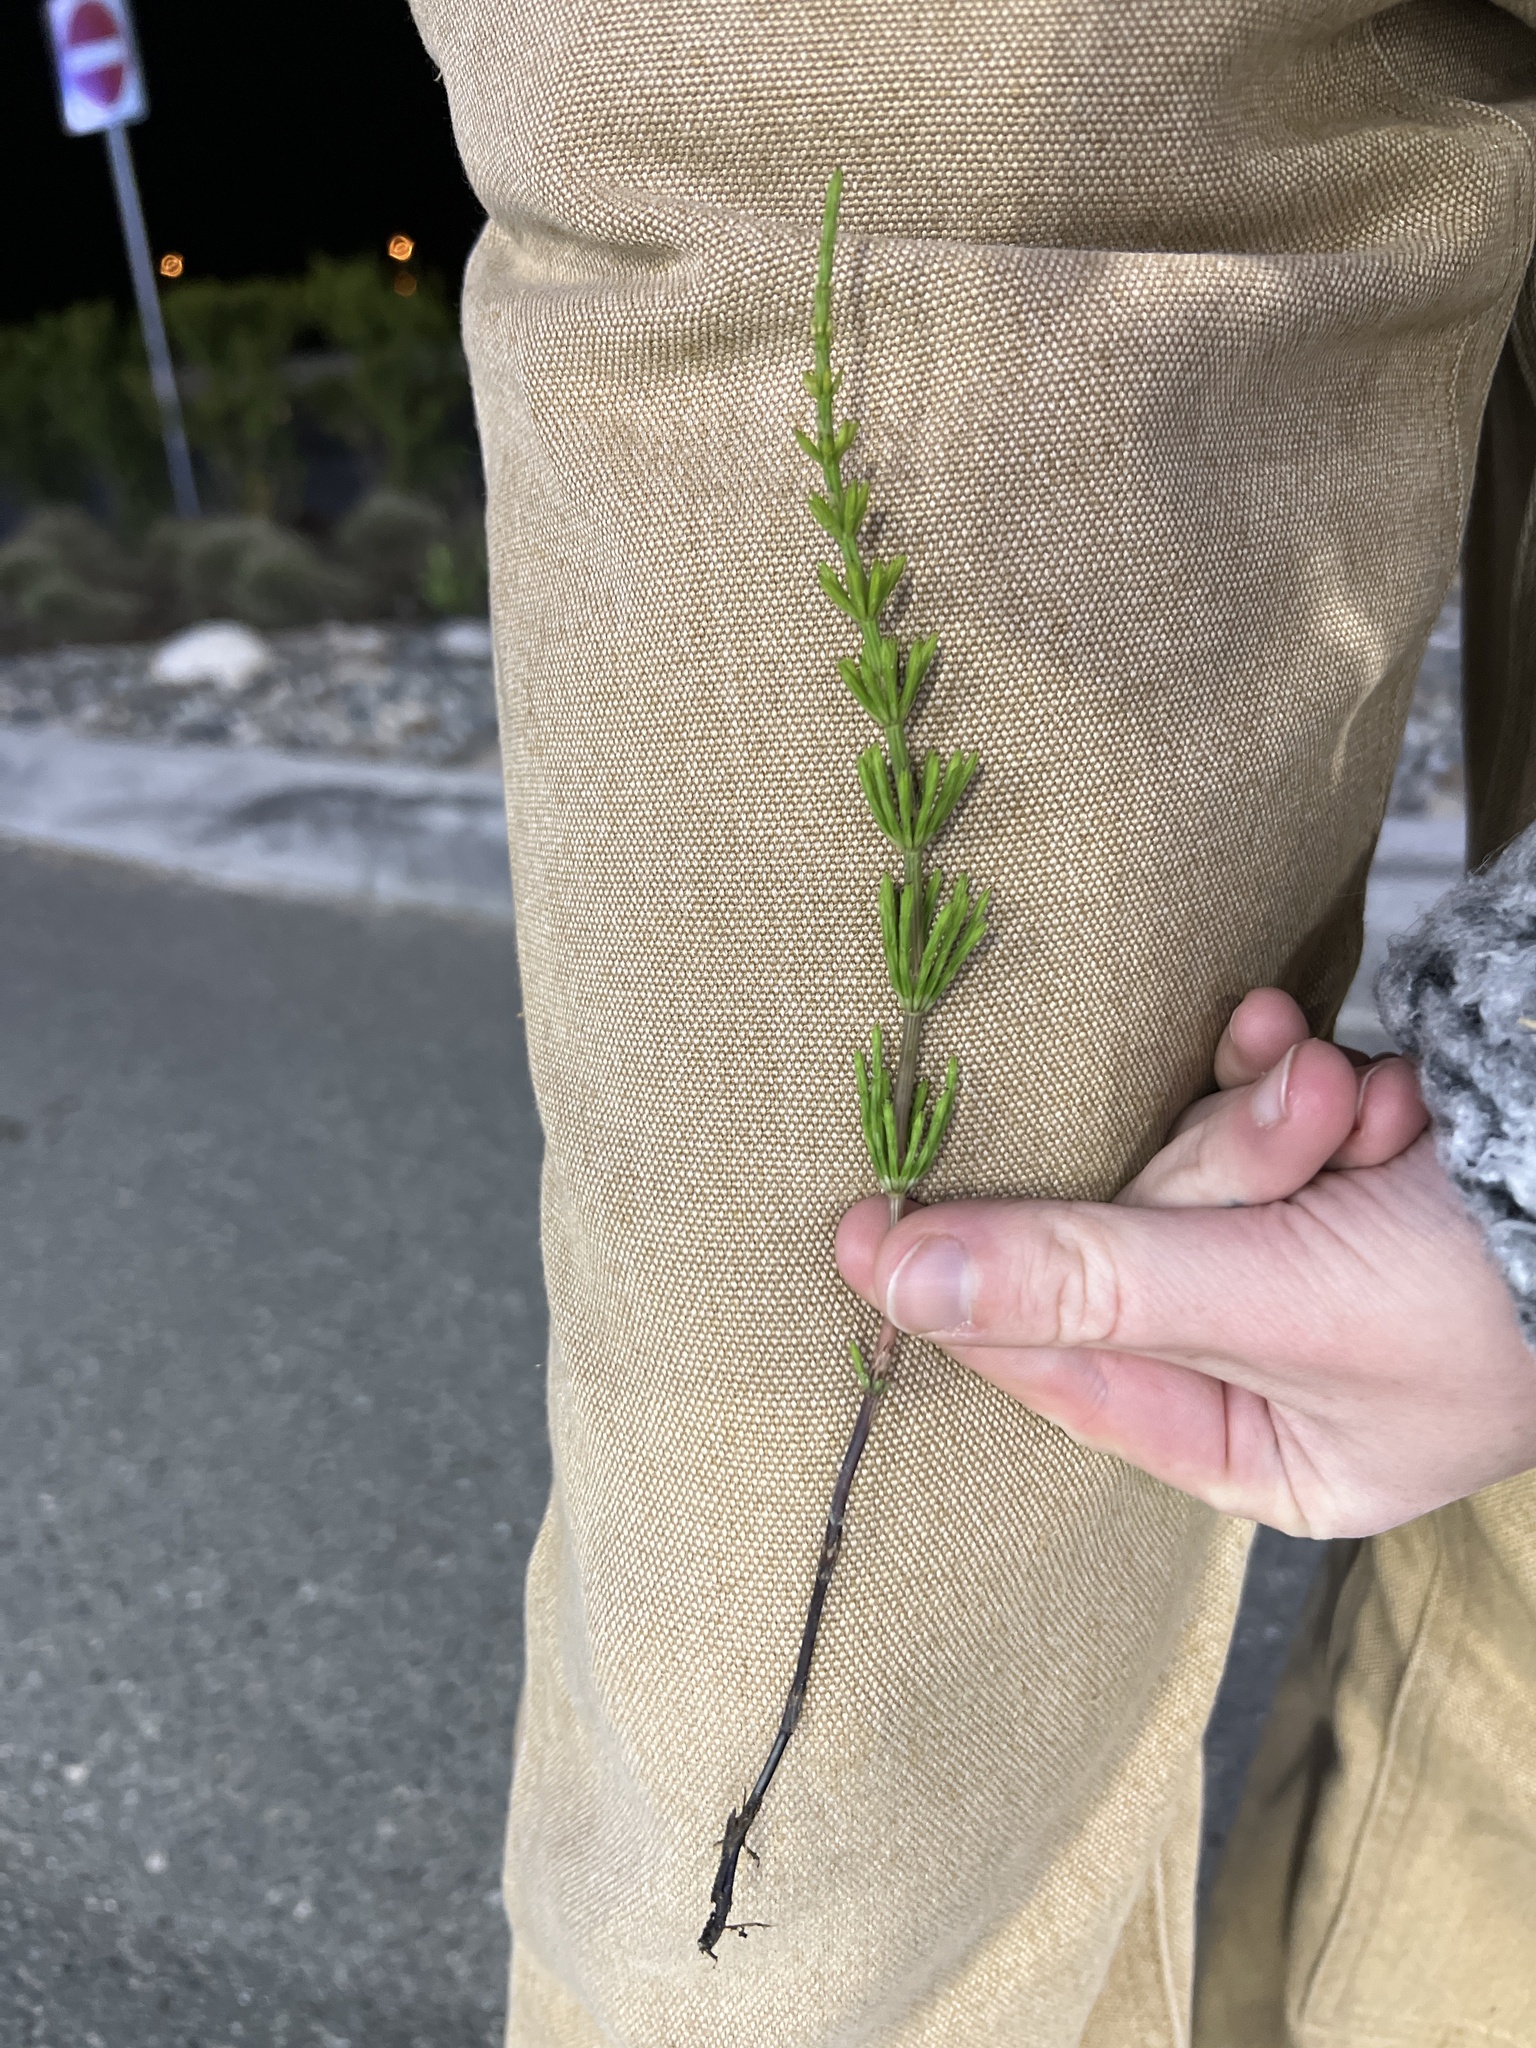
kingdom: Plantae
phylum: Tracheophyta
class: Polypodiopsida
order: Equisetales
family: Equisetaceae
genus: Equisetum
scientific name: Equisetum arvense
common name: Field horsetail
